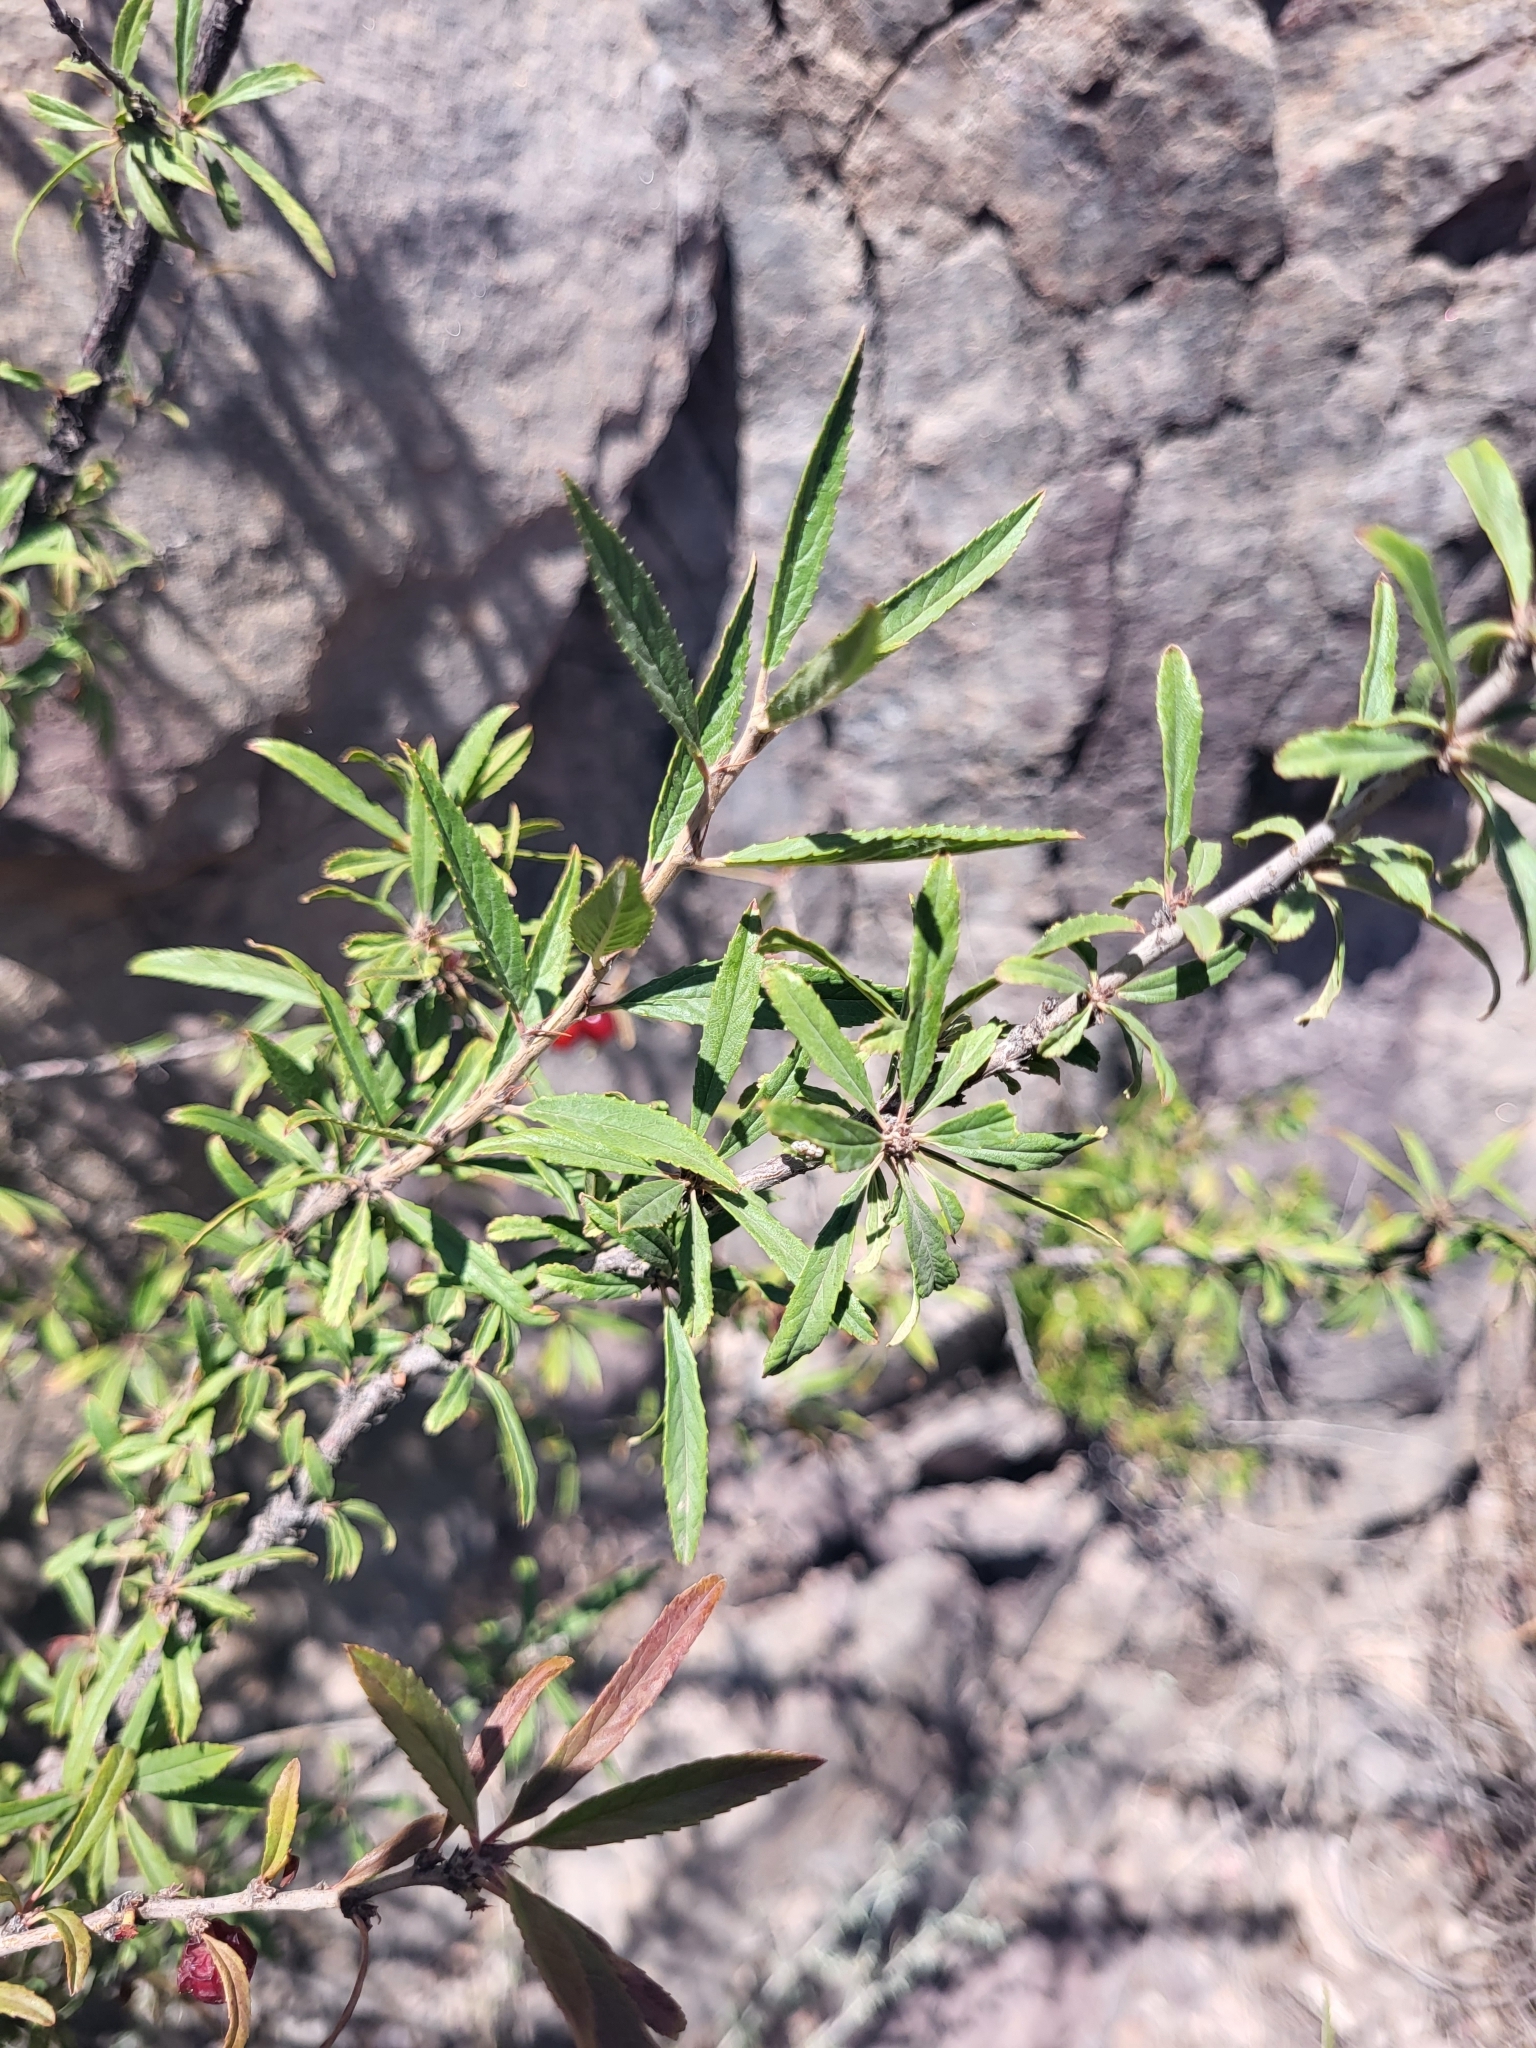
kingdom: Plantae
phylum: Tracheophyta
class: Magnoliopsida
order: Rosales
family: Rosaceae
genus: Prunus
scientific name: Prunus incana
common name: Willow cherry
